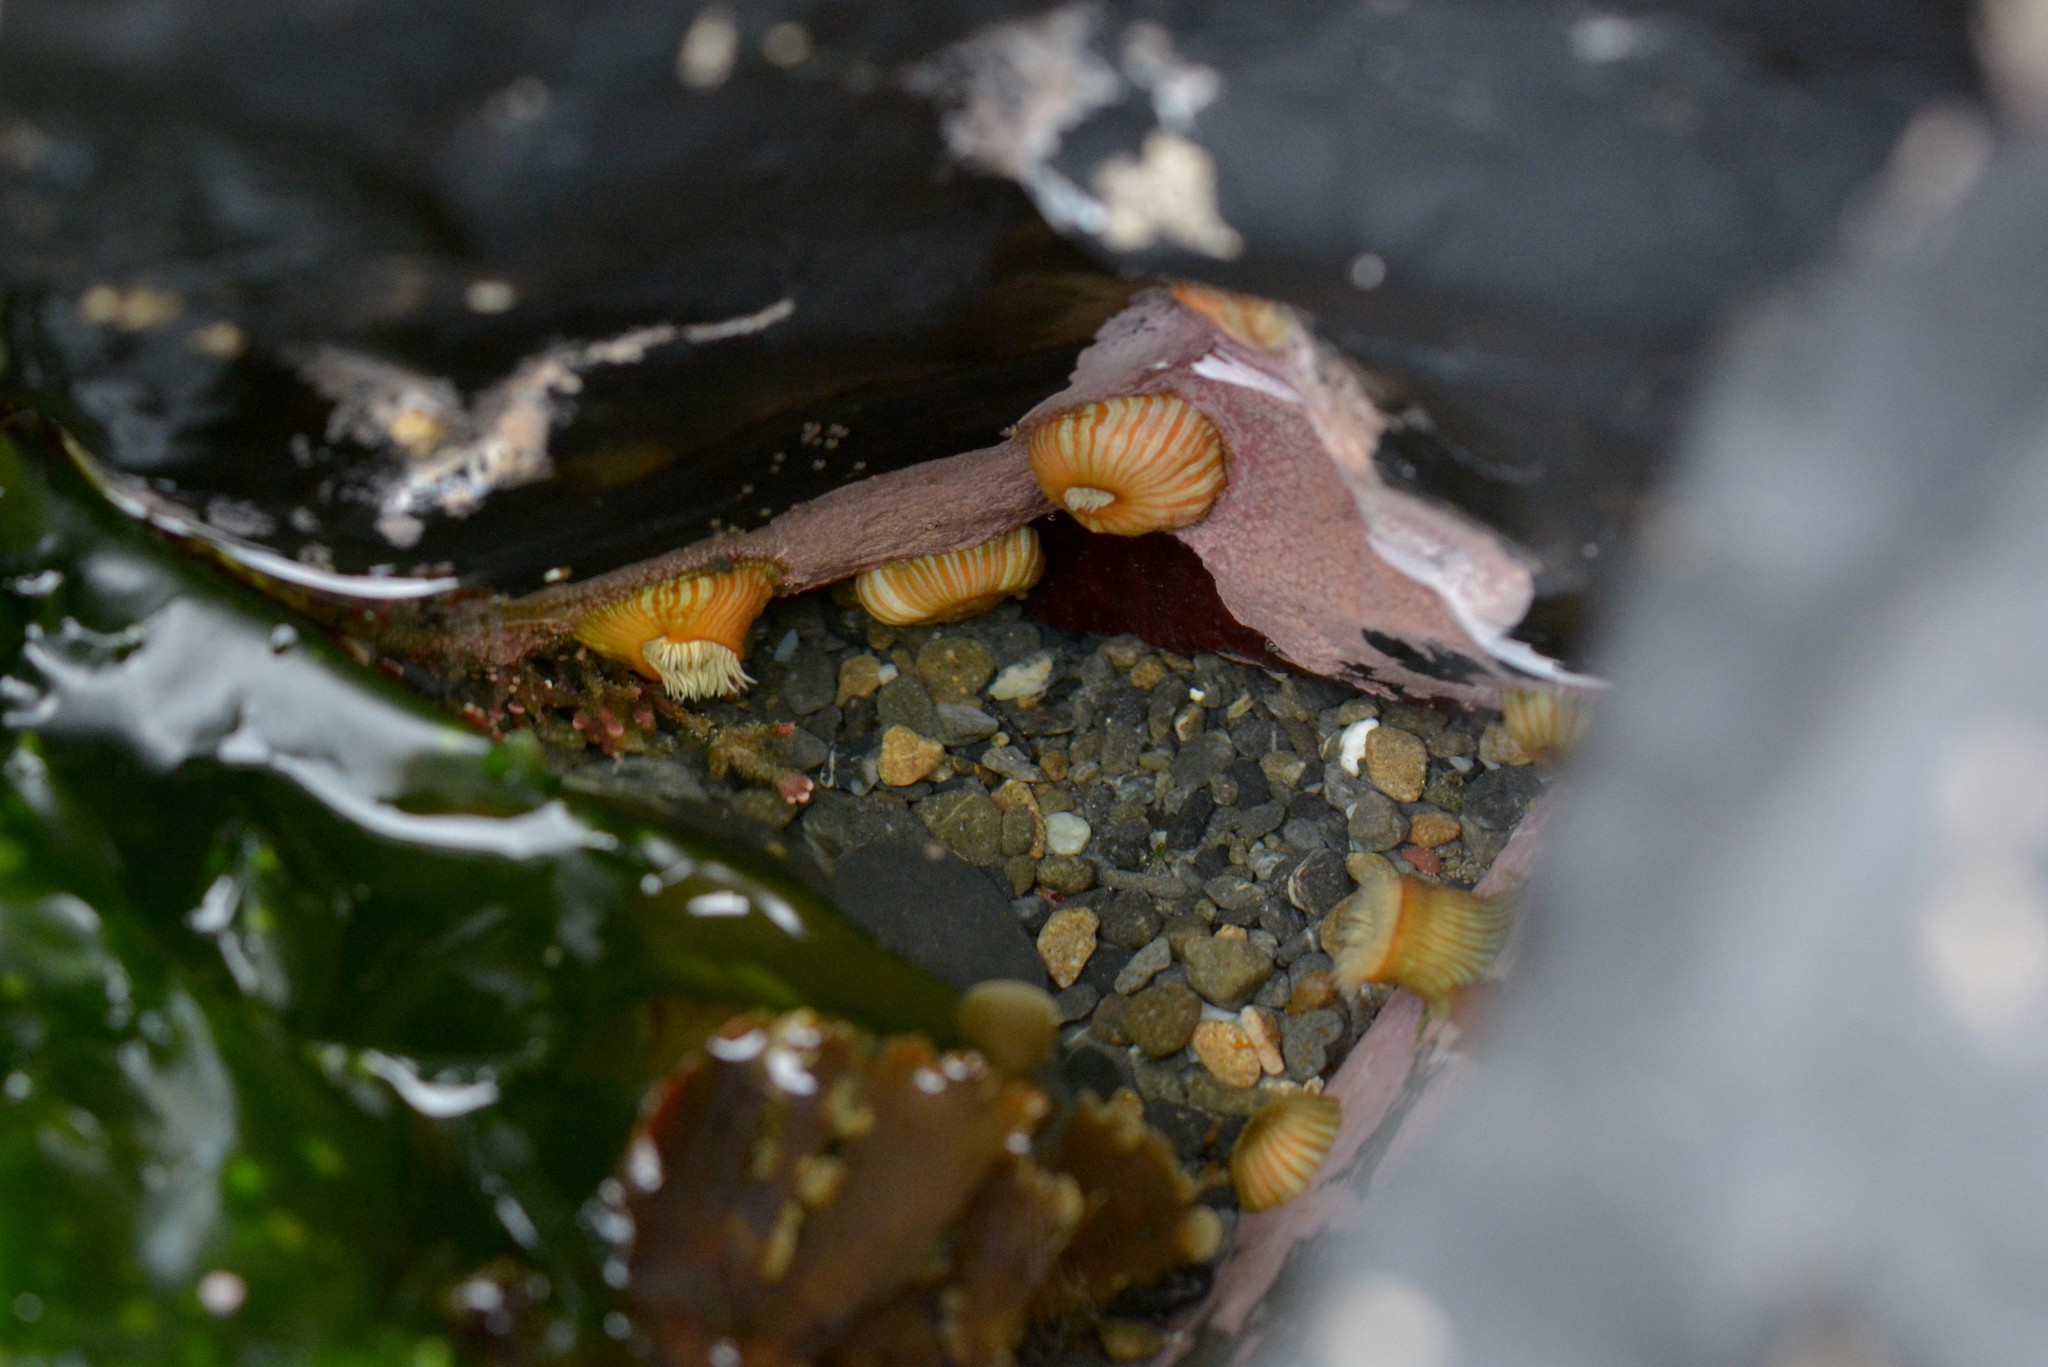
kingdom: Animalia
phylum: Cnidaria
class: Anthozoa
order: Actiniaria
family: Sagartiidae
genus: Anthothoe
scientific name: Anthothoe albocincta
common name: Orange striped anemone
